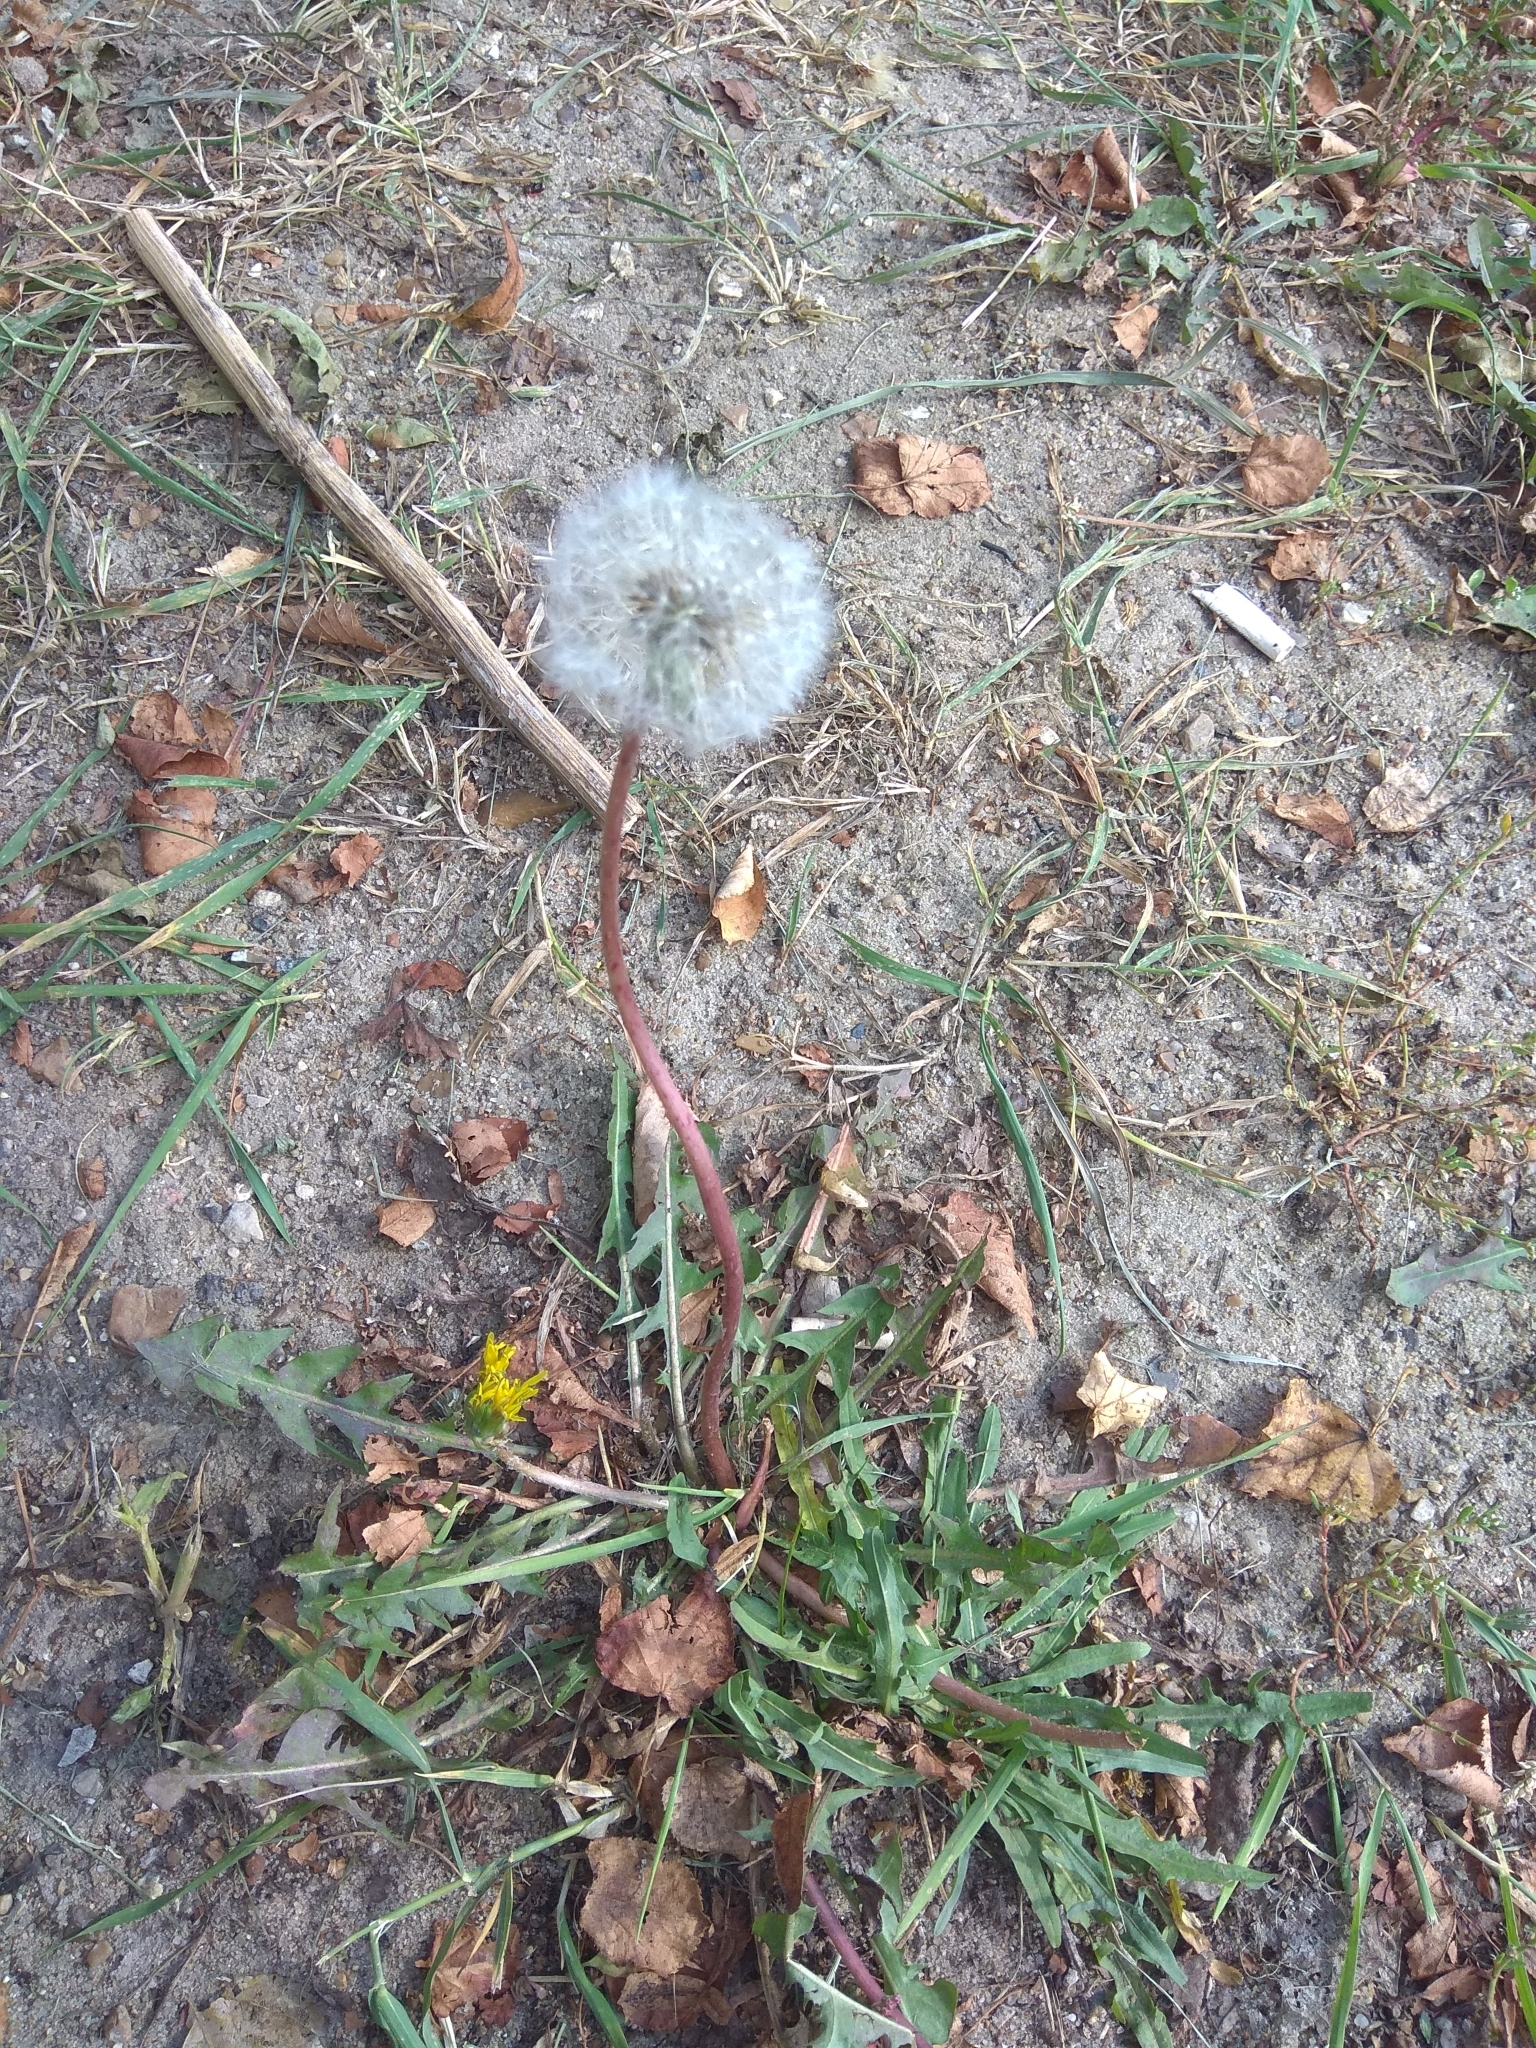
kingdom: Plantae
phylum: Tracheophyta
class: Magnoliopsida
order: Asterales
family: Asteraceae
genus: Taraxacum
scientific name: Taraxacum officinale
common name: Common dandelion
